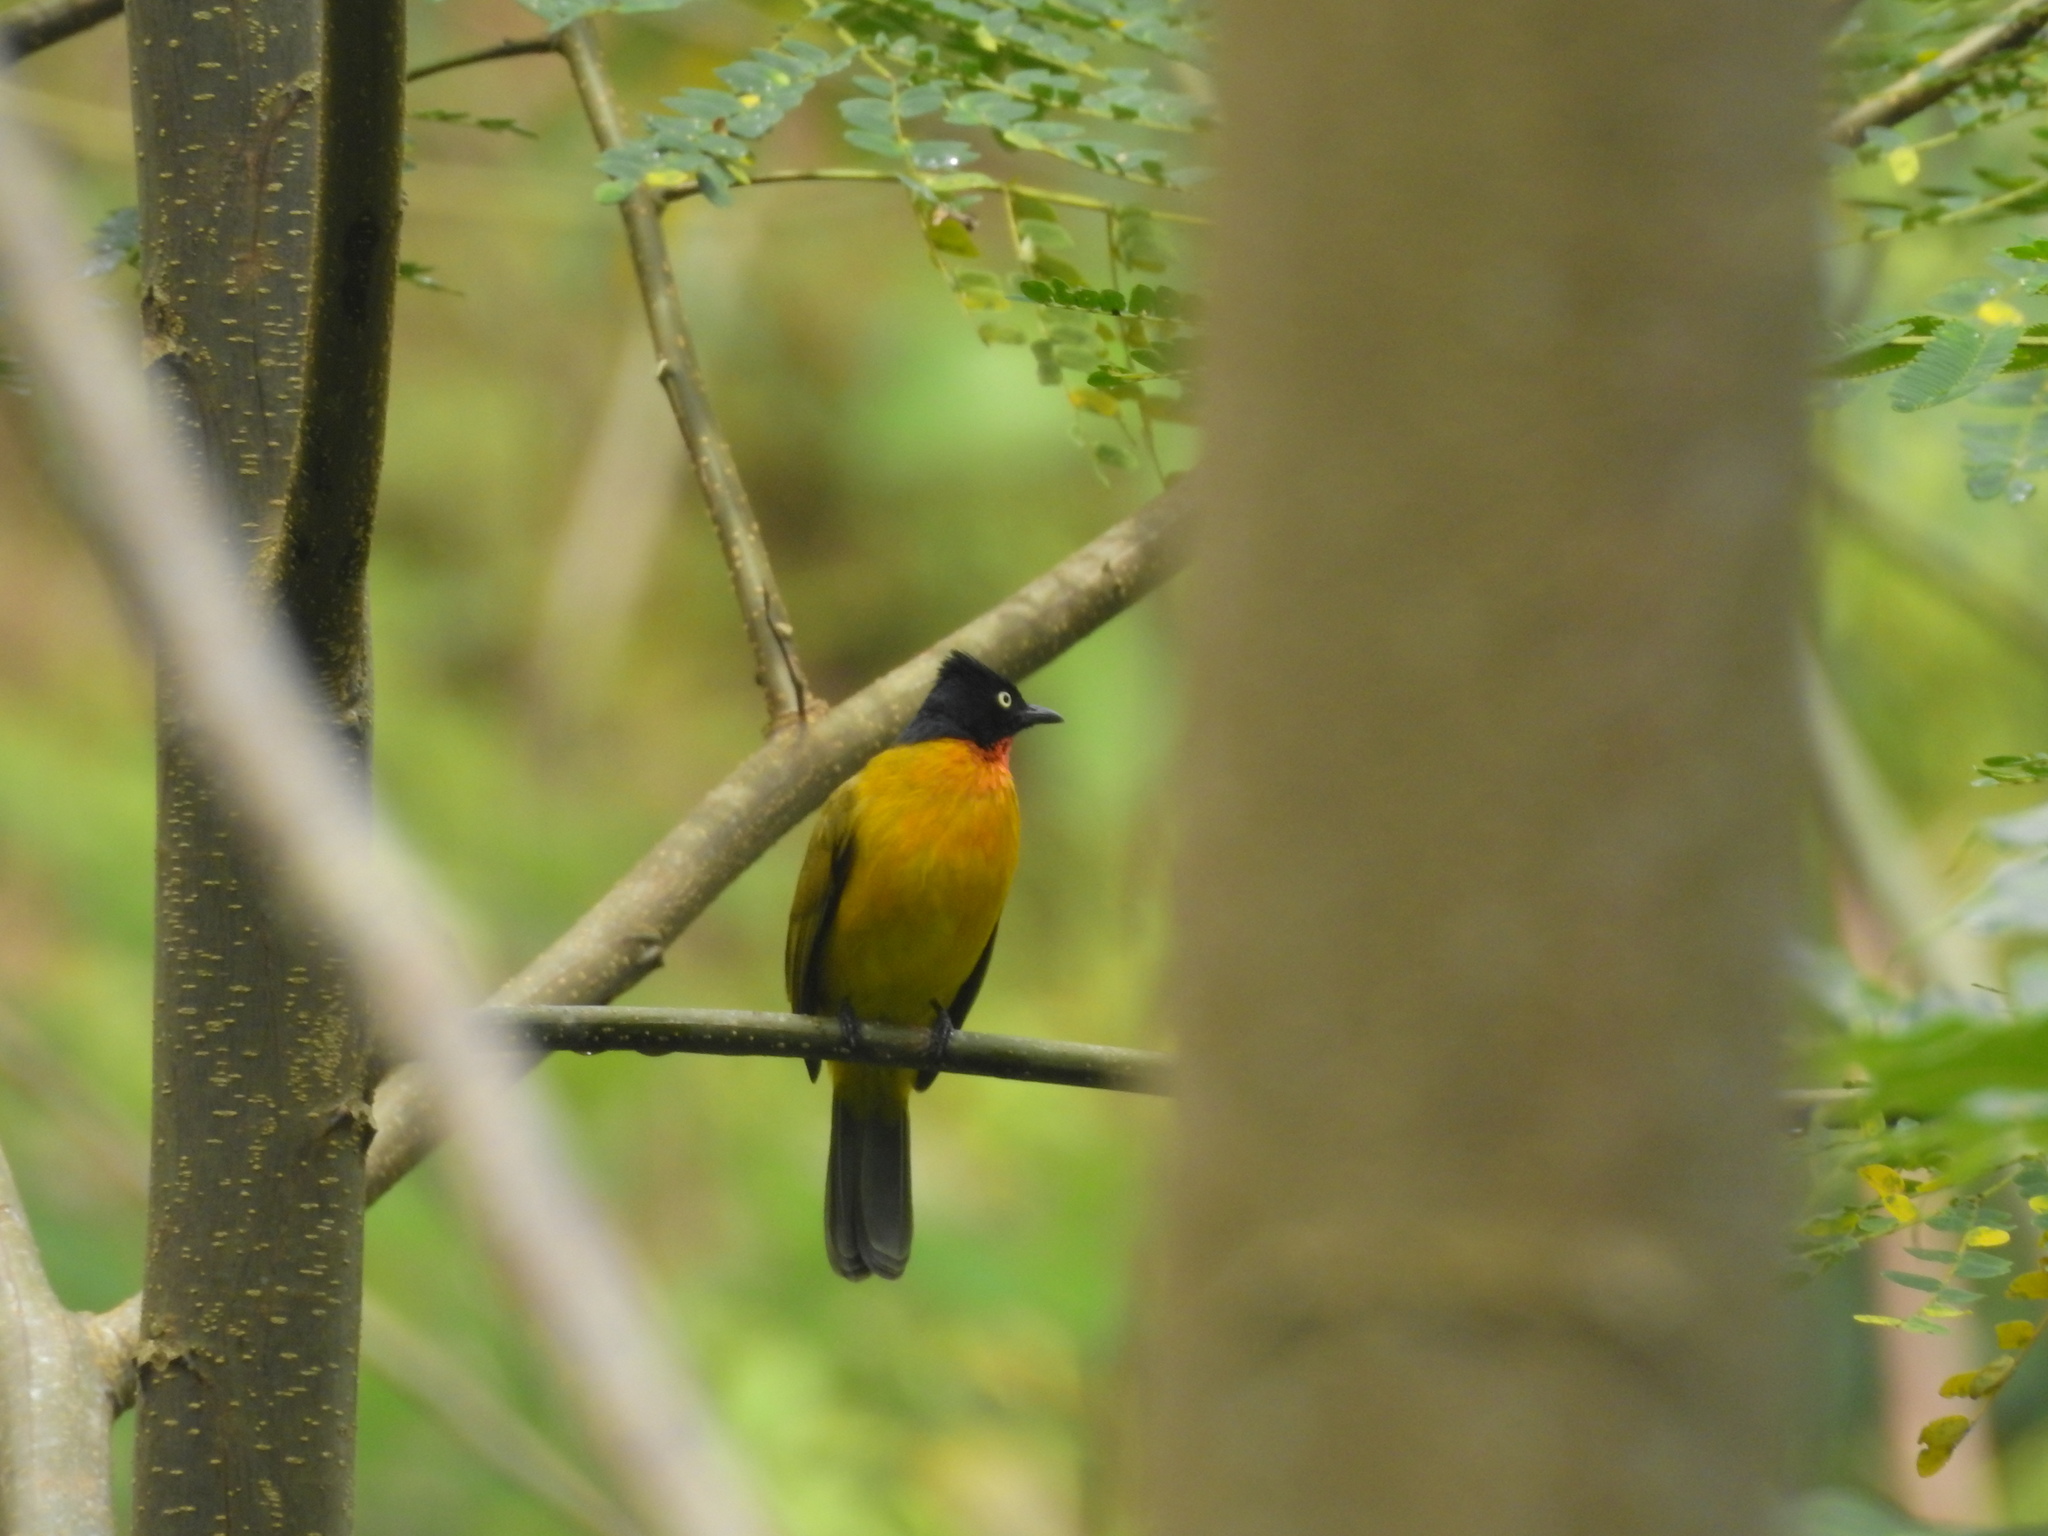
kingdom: Animalia
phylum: Chordata
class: Aves
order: Passeriformes
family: Pycnonotidae
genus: Pycnonotus
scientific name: Pycnonotus dispar
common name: Ruby-throated bulbul
